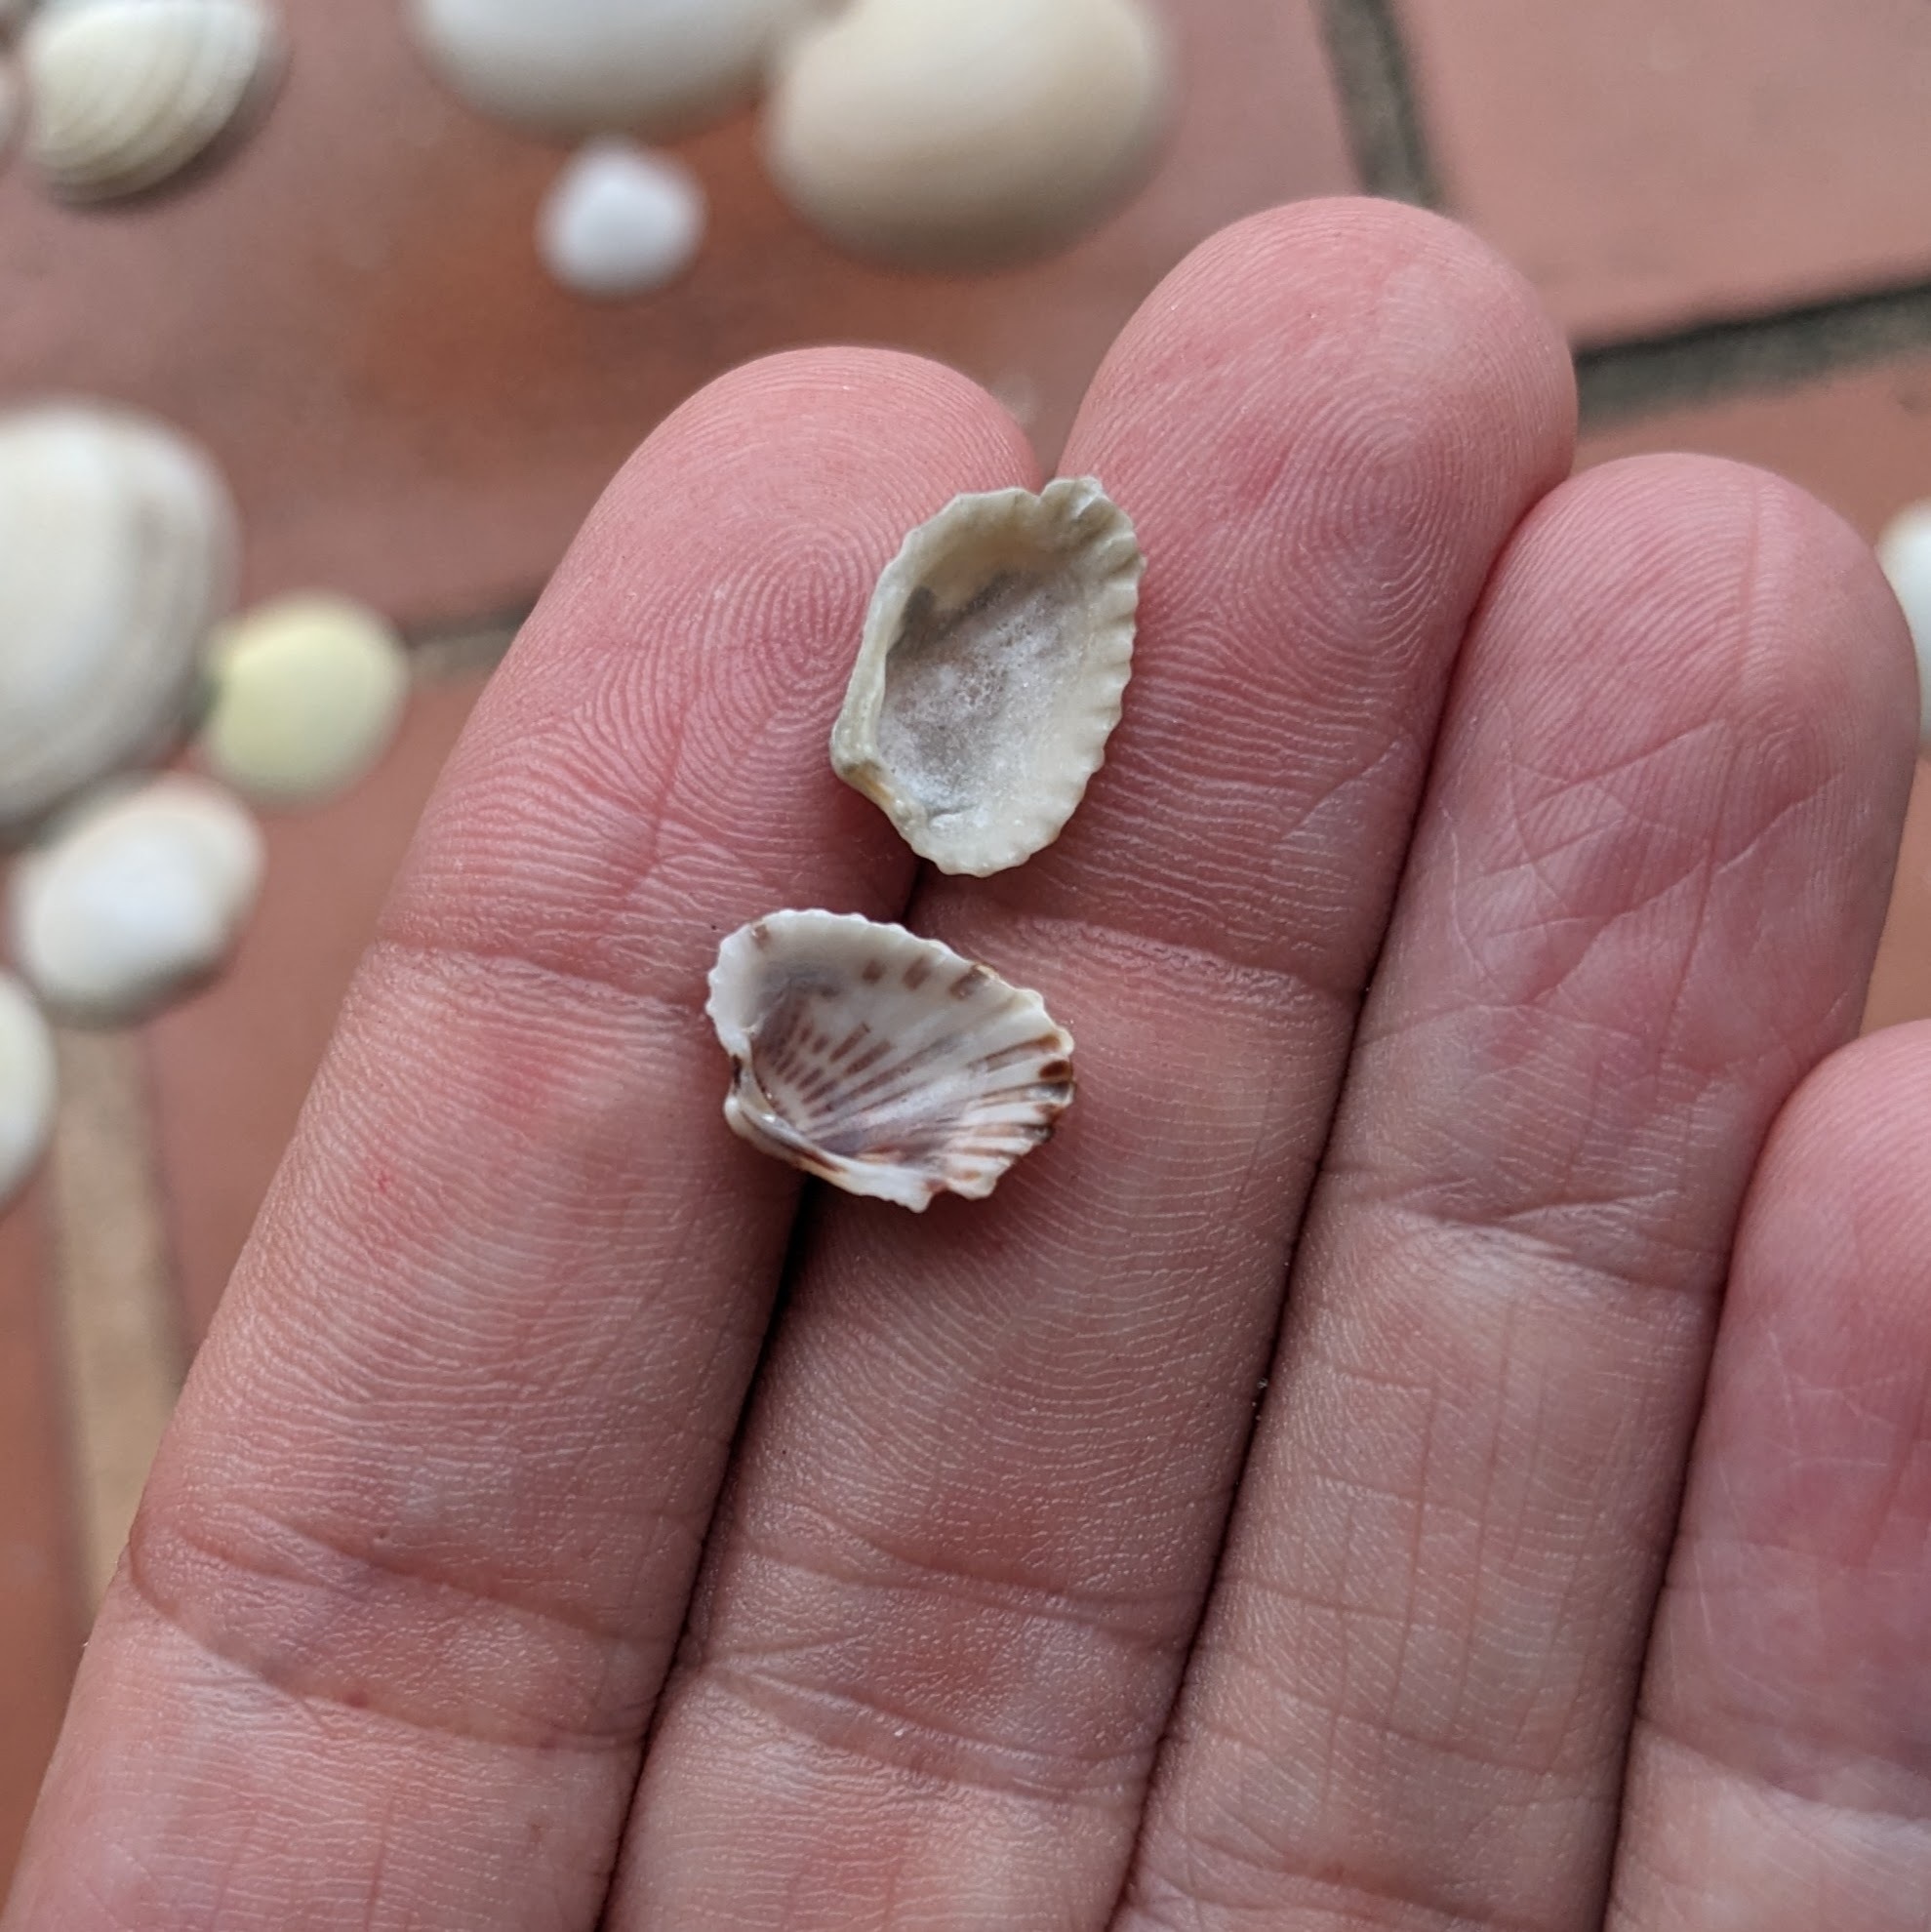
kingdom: Animalia
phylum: Mollusca
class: Bivalvia
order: Carditida
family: Carditidae
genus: Cardites
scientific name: Cardites floridanus
